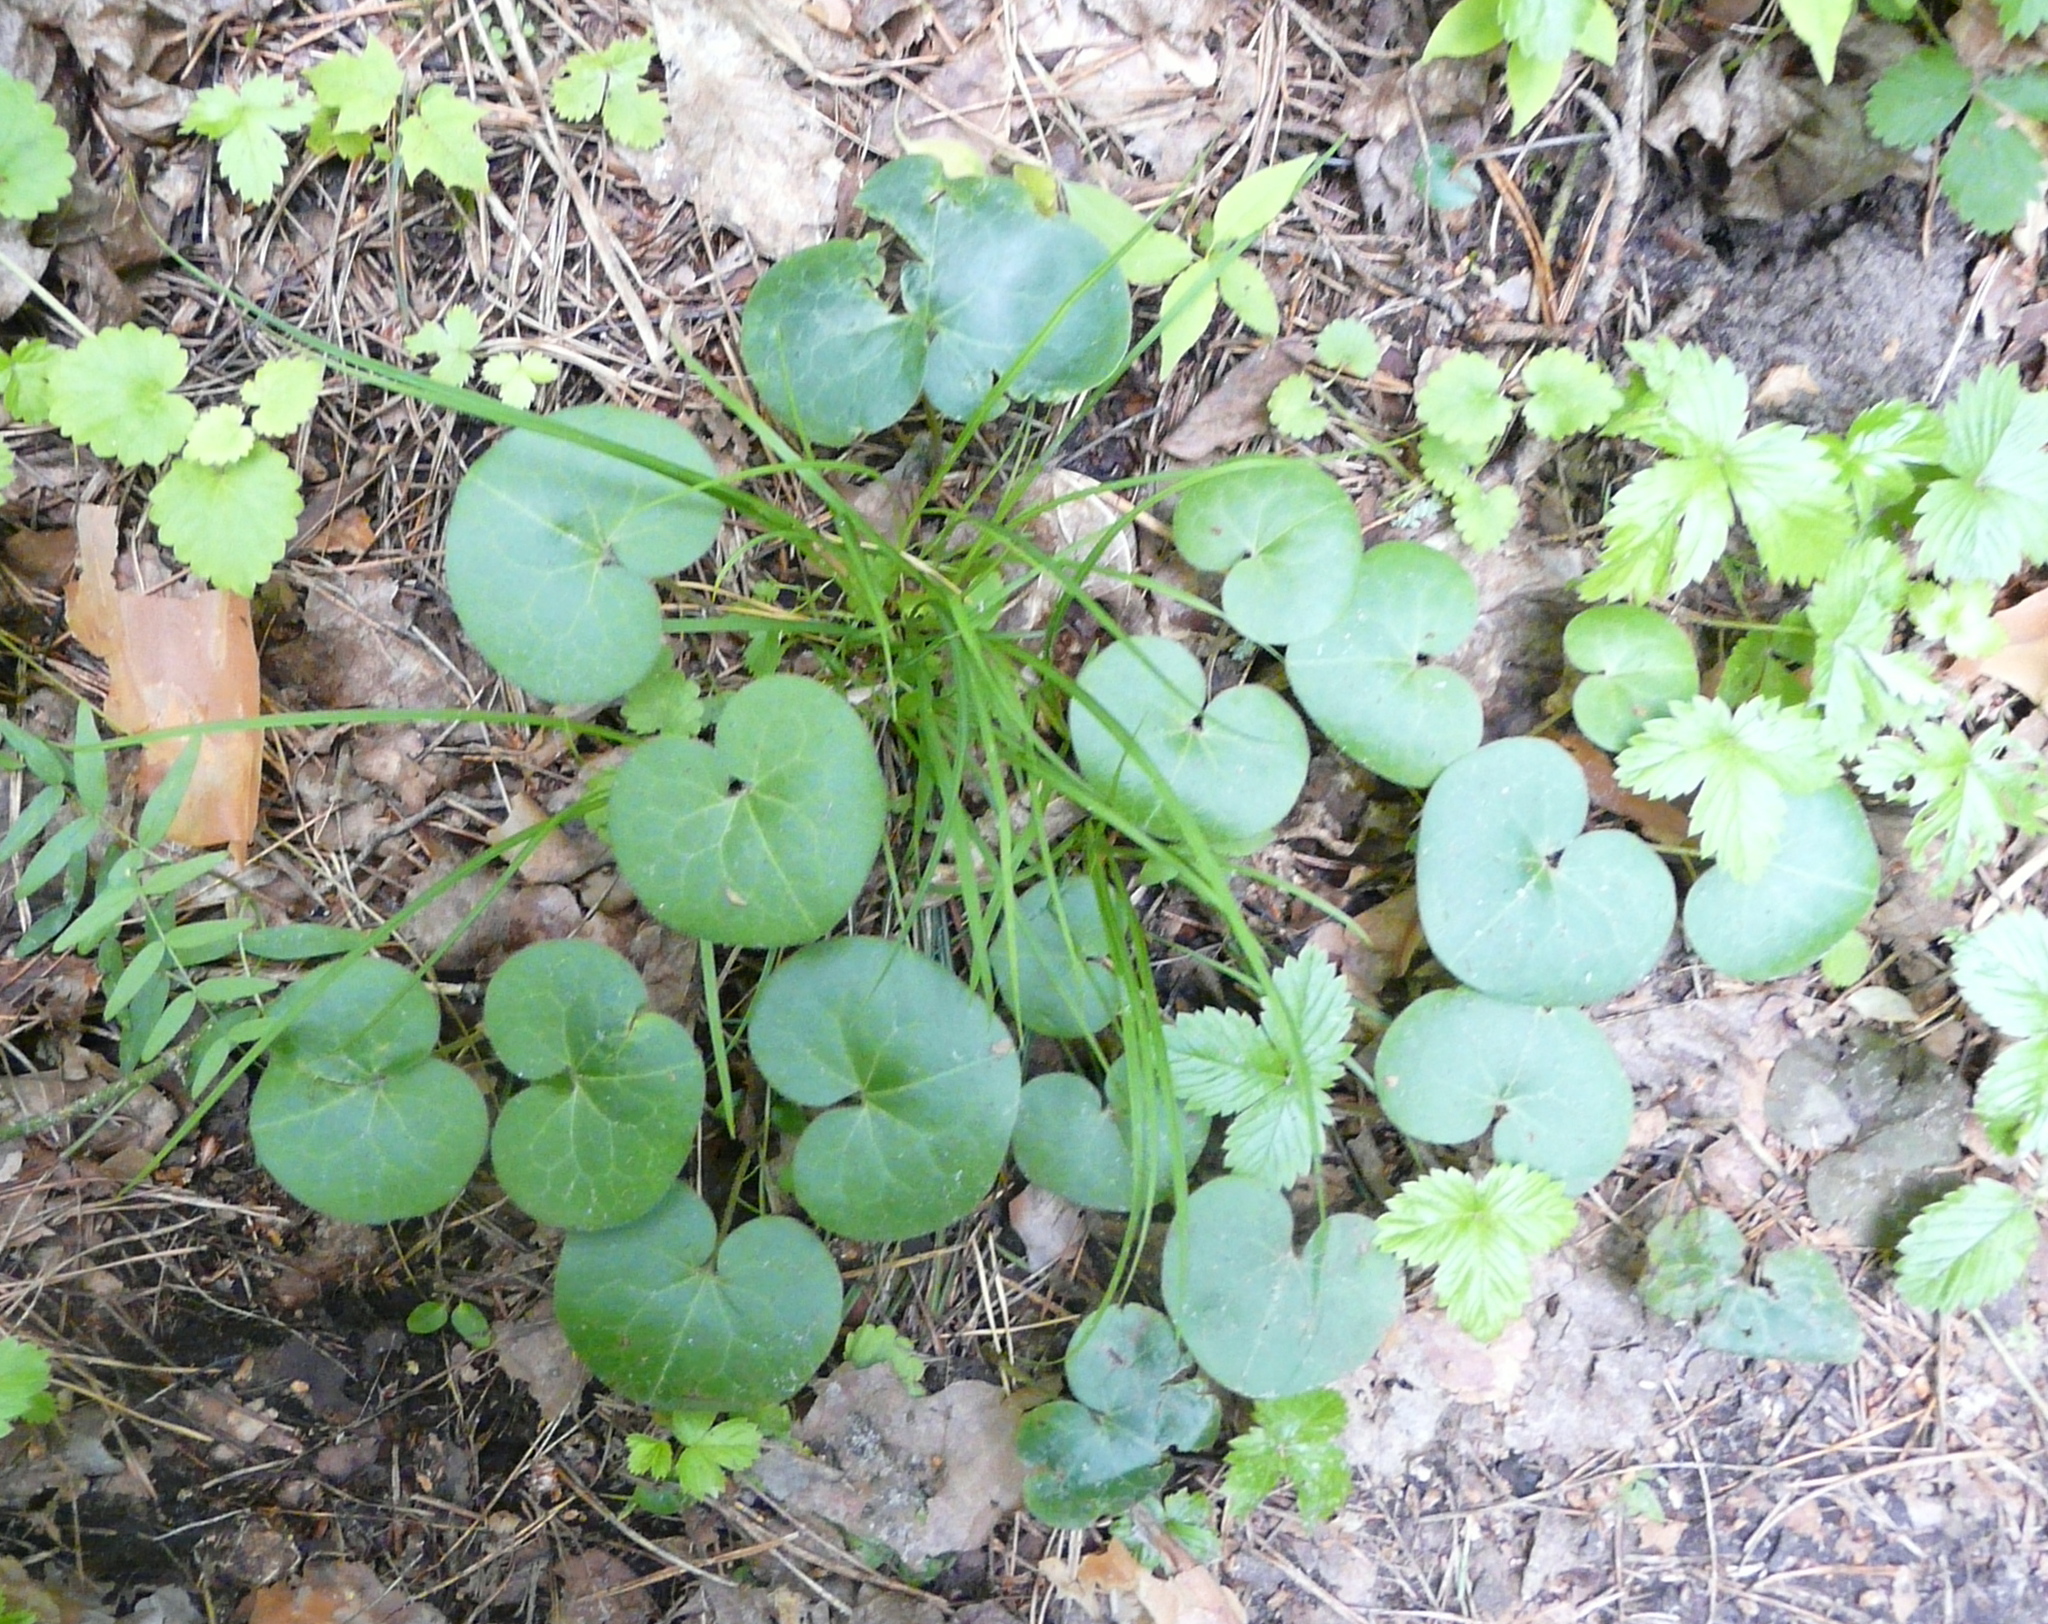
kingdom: Plantae
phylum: Tracheophyta
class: Magnoliopsida
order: Piperales
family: Aristolochiaceae
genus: Asarum
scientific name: Asarum europaeum
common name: Asarabacca
